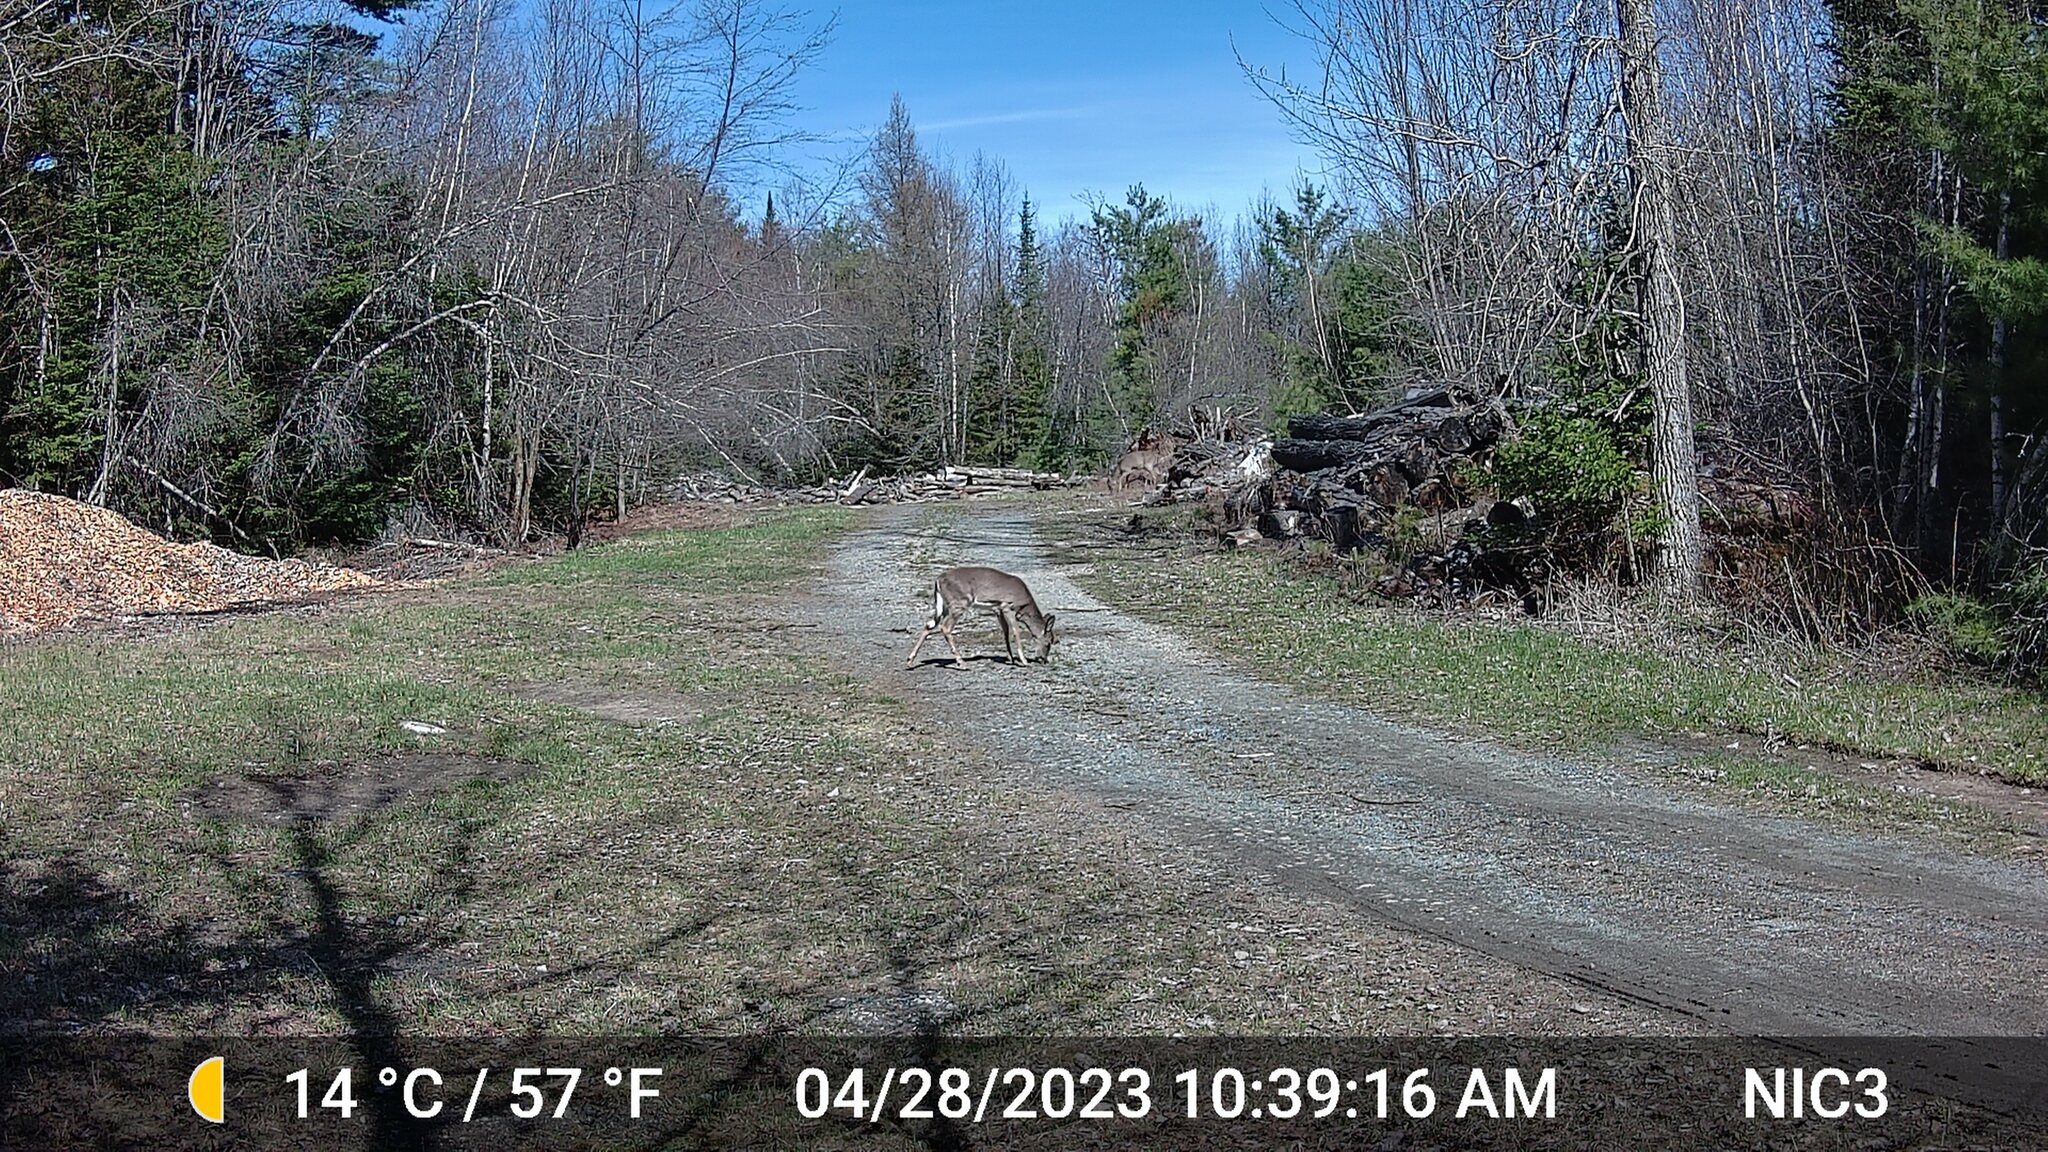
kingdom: Animalia
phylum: Chordata
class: Mammalia
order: Artiodactyla
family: Cervidae
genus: Odocoileus
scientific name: Odocoileus virginianus
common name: White-tailed deer
